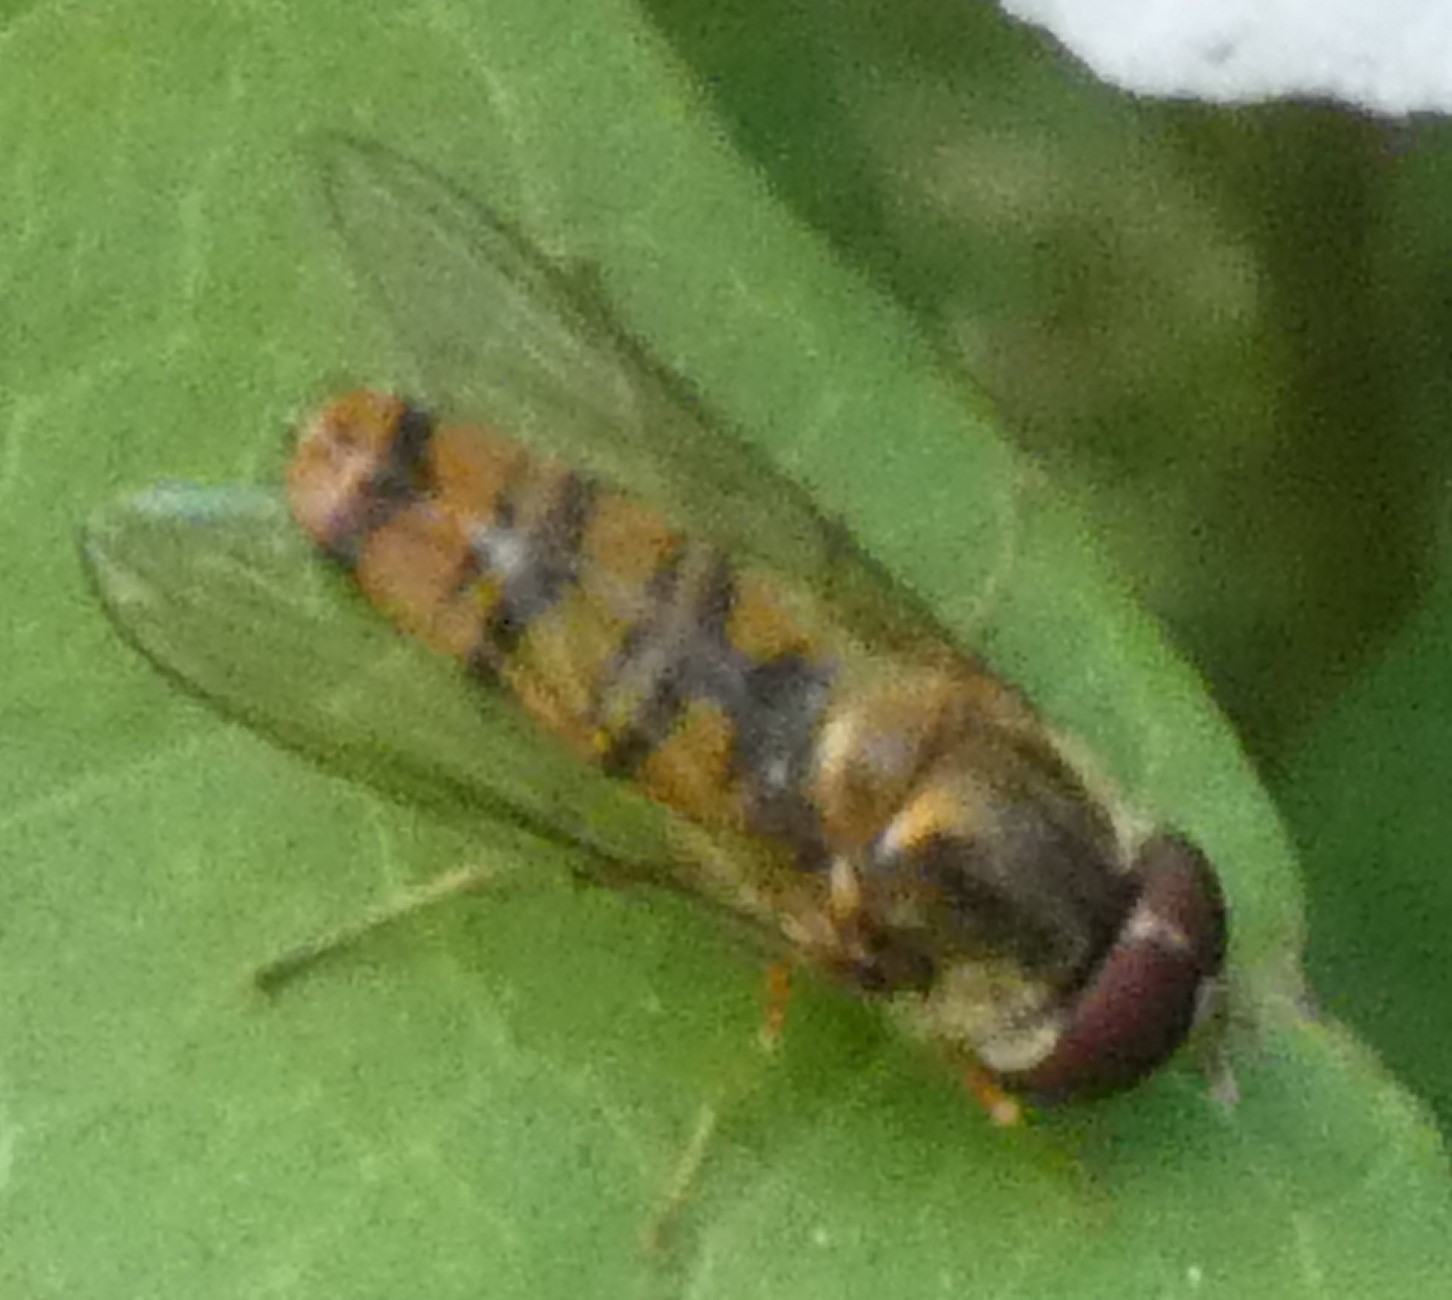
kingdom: Animalia
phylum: Arthropoda
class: Insecta
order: Diptera
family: Syrphidae
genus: Episyrphus
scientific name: Episyrphus balteatus
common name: Marmalade hoverfly
